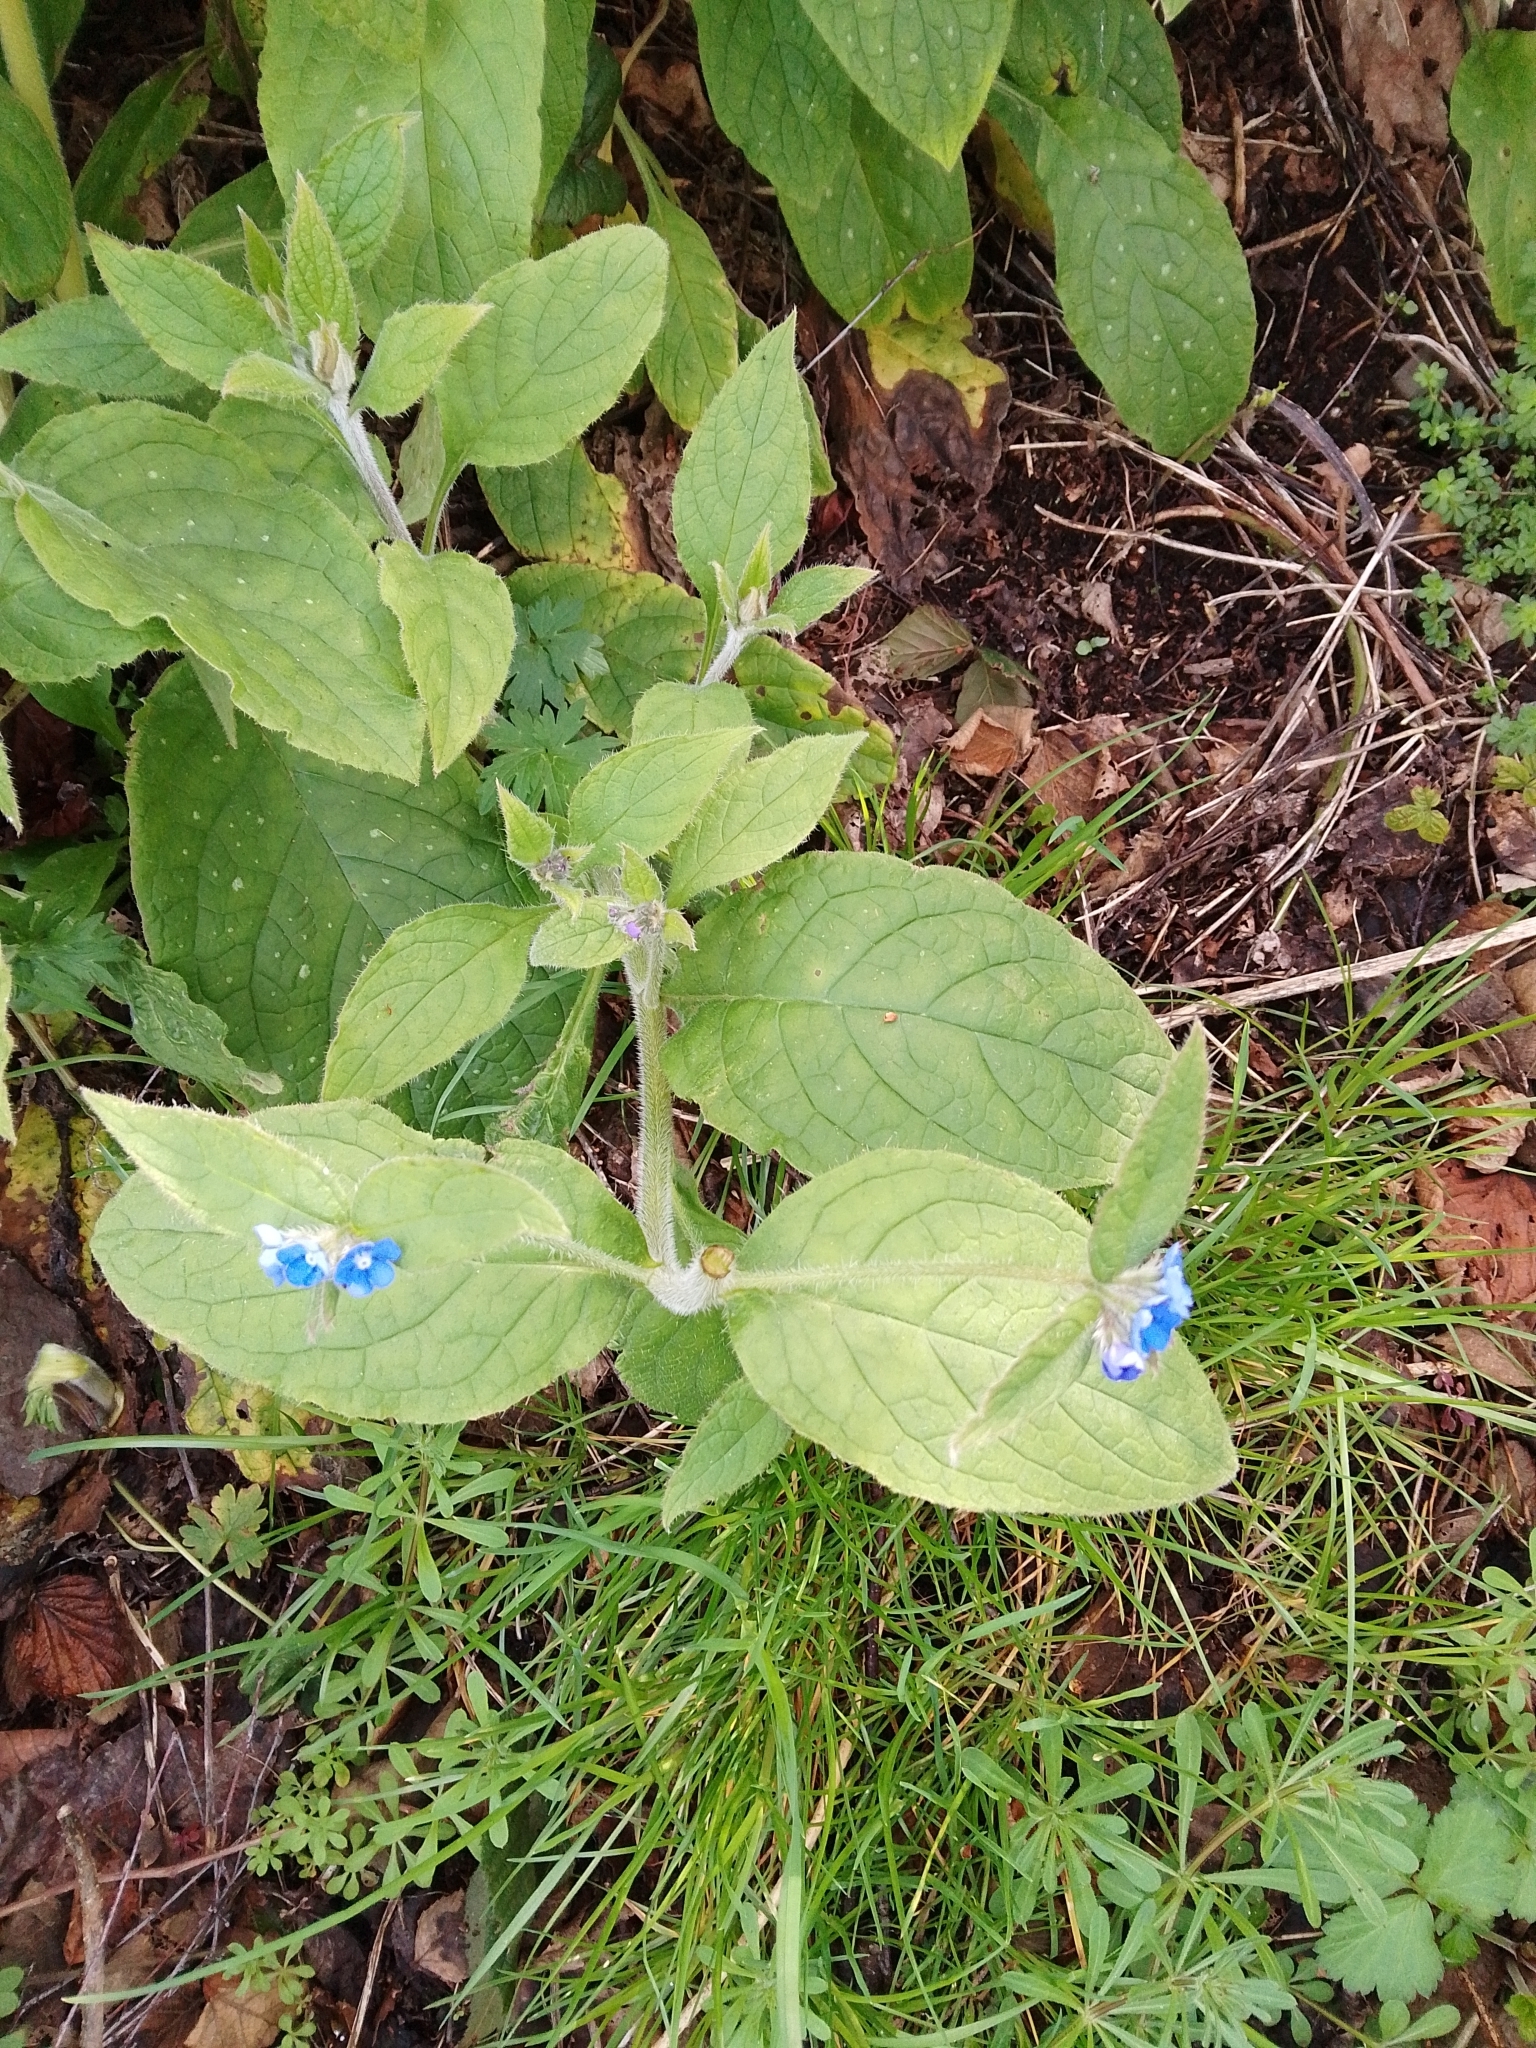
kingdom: Plantae
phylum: Tracheophyta
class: Magnoliopsida
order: Boraginales
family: Boraginaceae
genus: Pentaglottis
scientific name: Pentaglottis sempervirens
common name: Green alkanet
